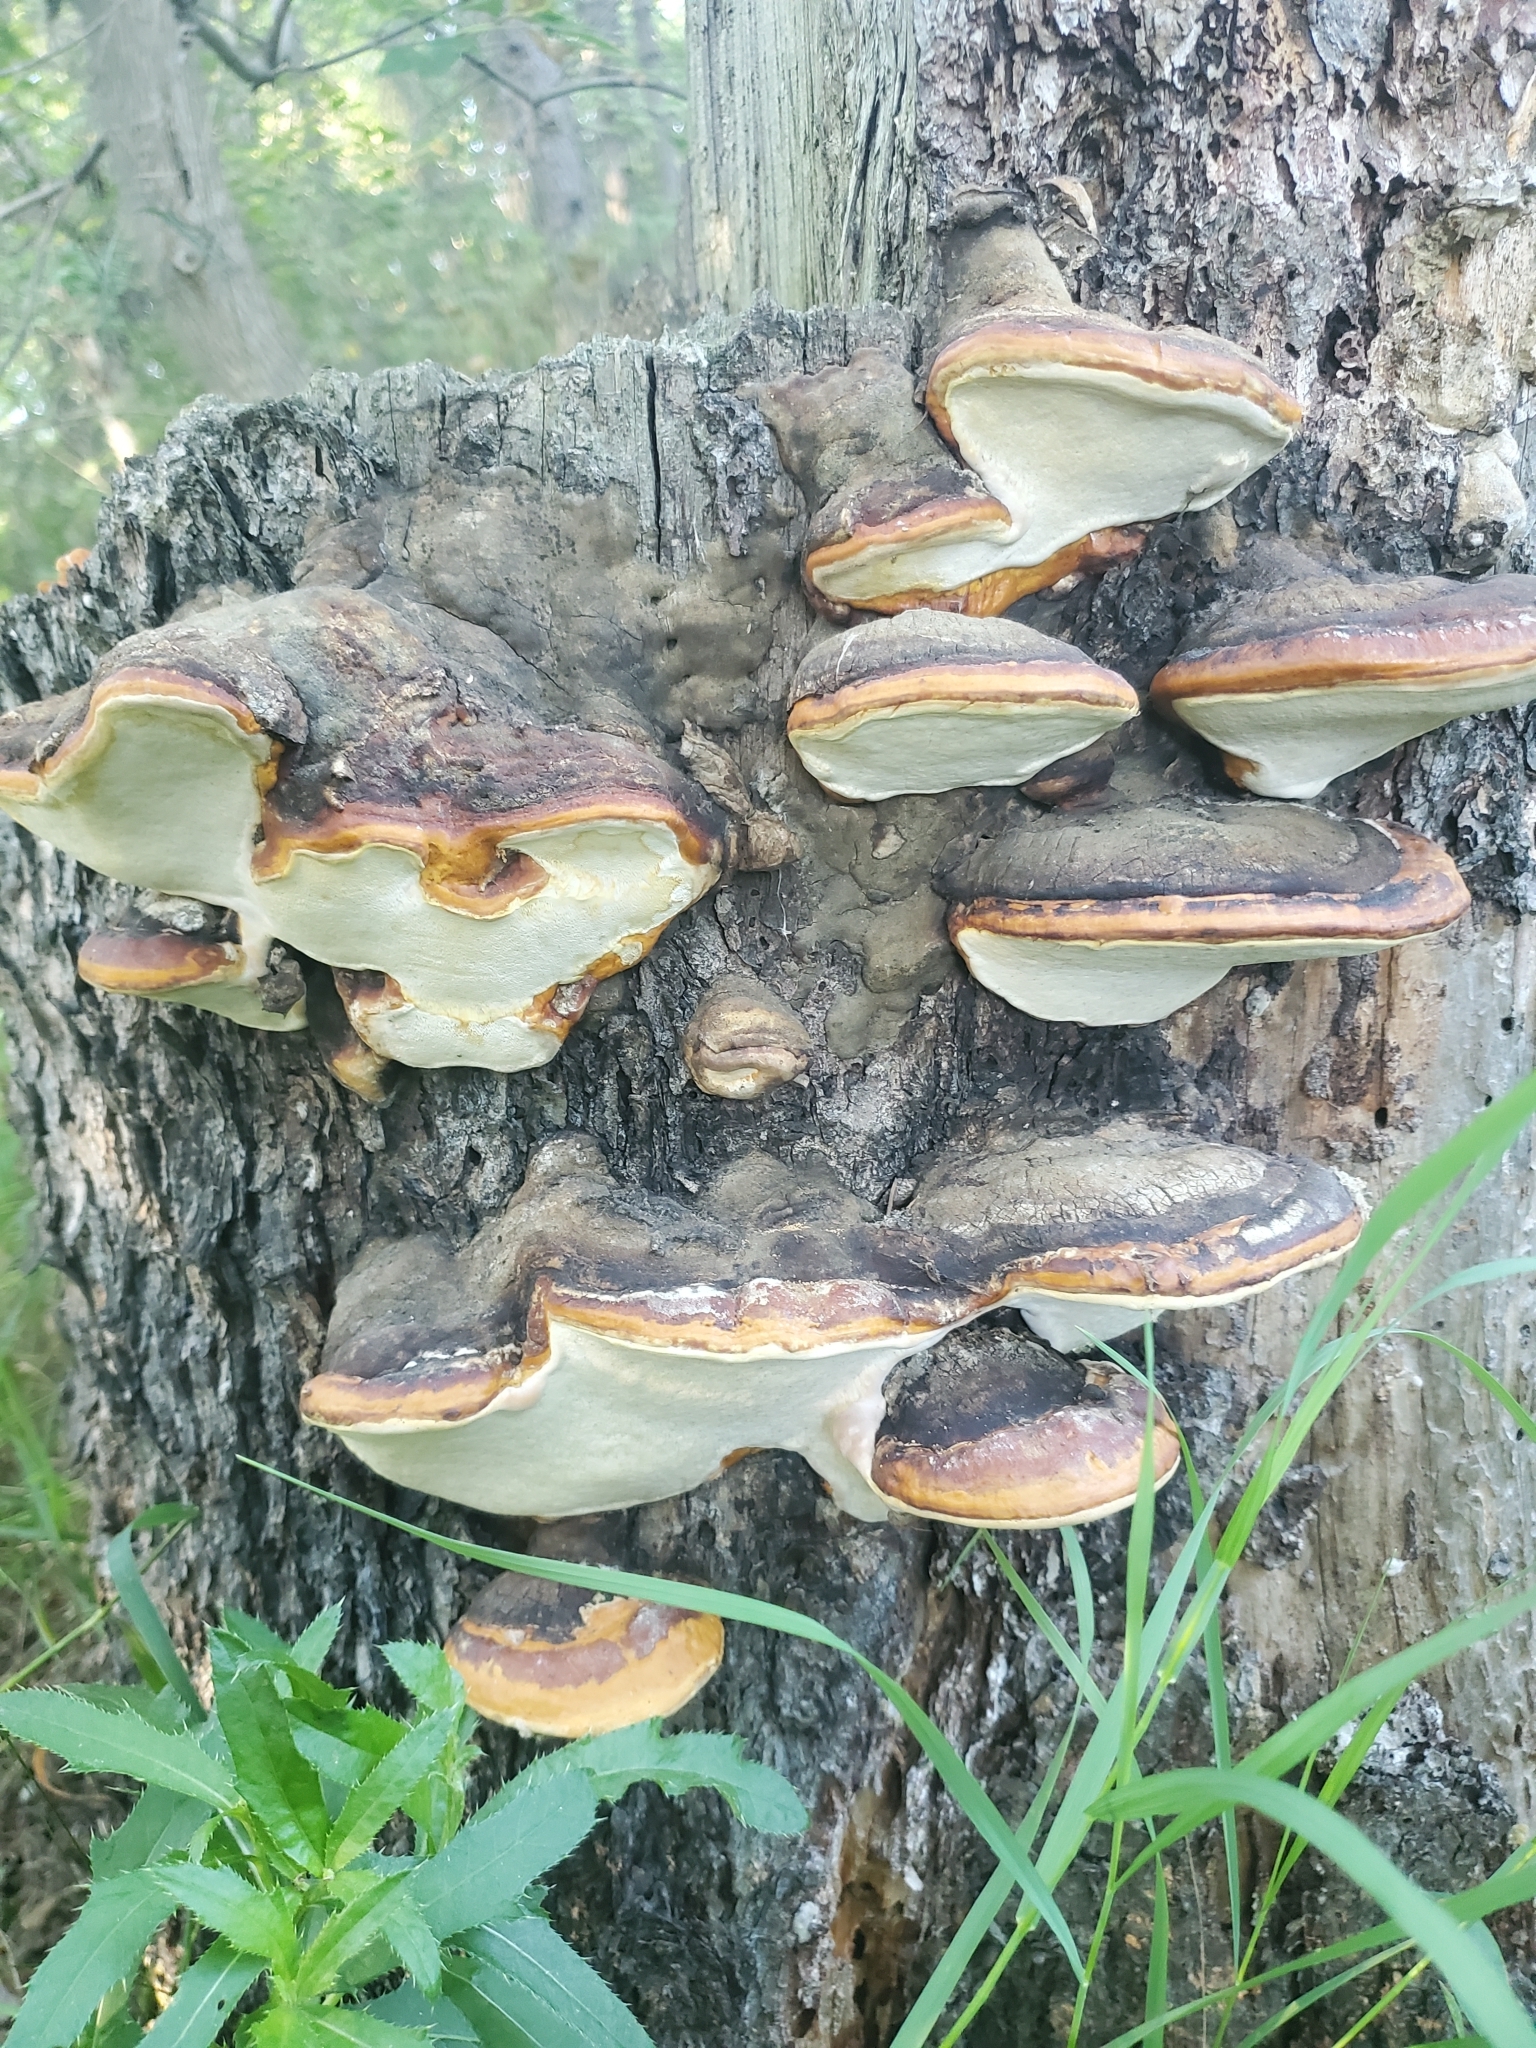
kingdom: Fungi
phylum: Basidiomycota
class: Agaricomycetes
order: Polyporales
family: Fomitopsidaceae
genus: Fomitopsis
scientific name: Fomitopsis mounceae
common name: Northern red belt
